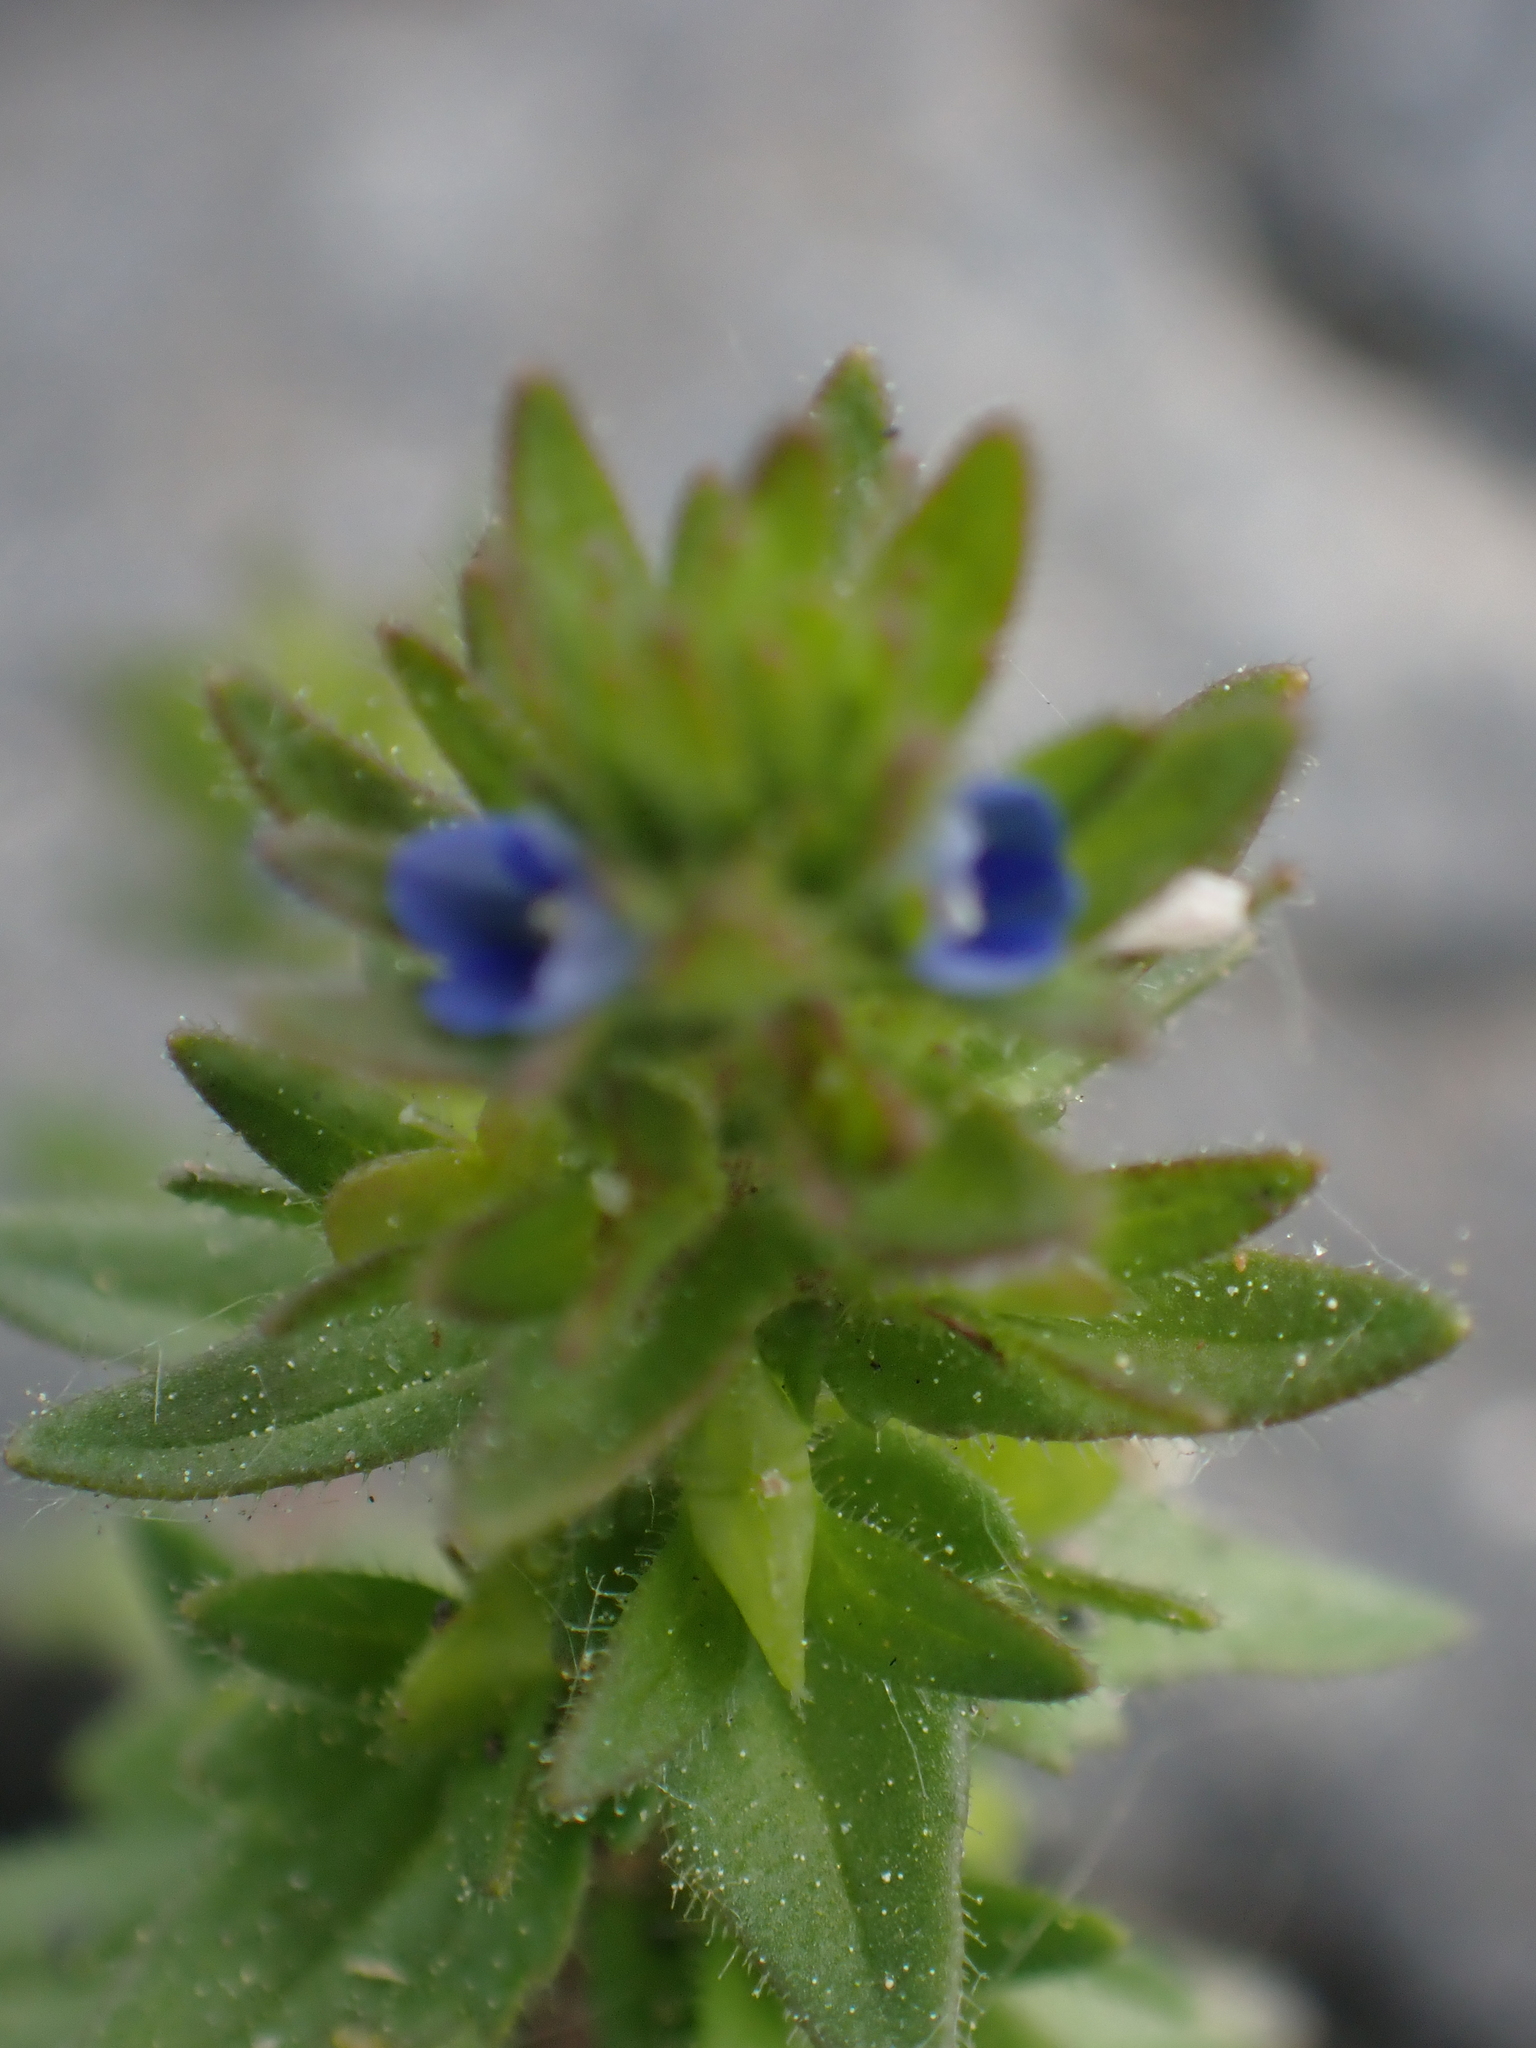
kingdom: Plantae
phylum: Tracheophyta
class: Magnoliopsida
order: Lamiales
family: Plantaginaceae
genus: Veronica
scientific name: Veronica arvensis
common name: Corn speedwell
